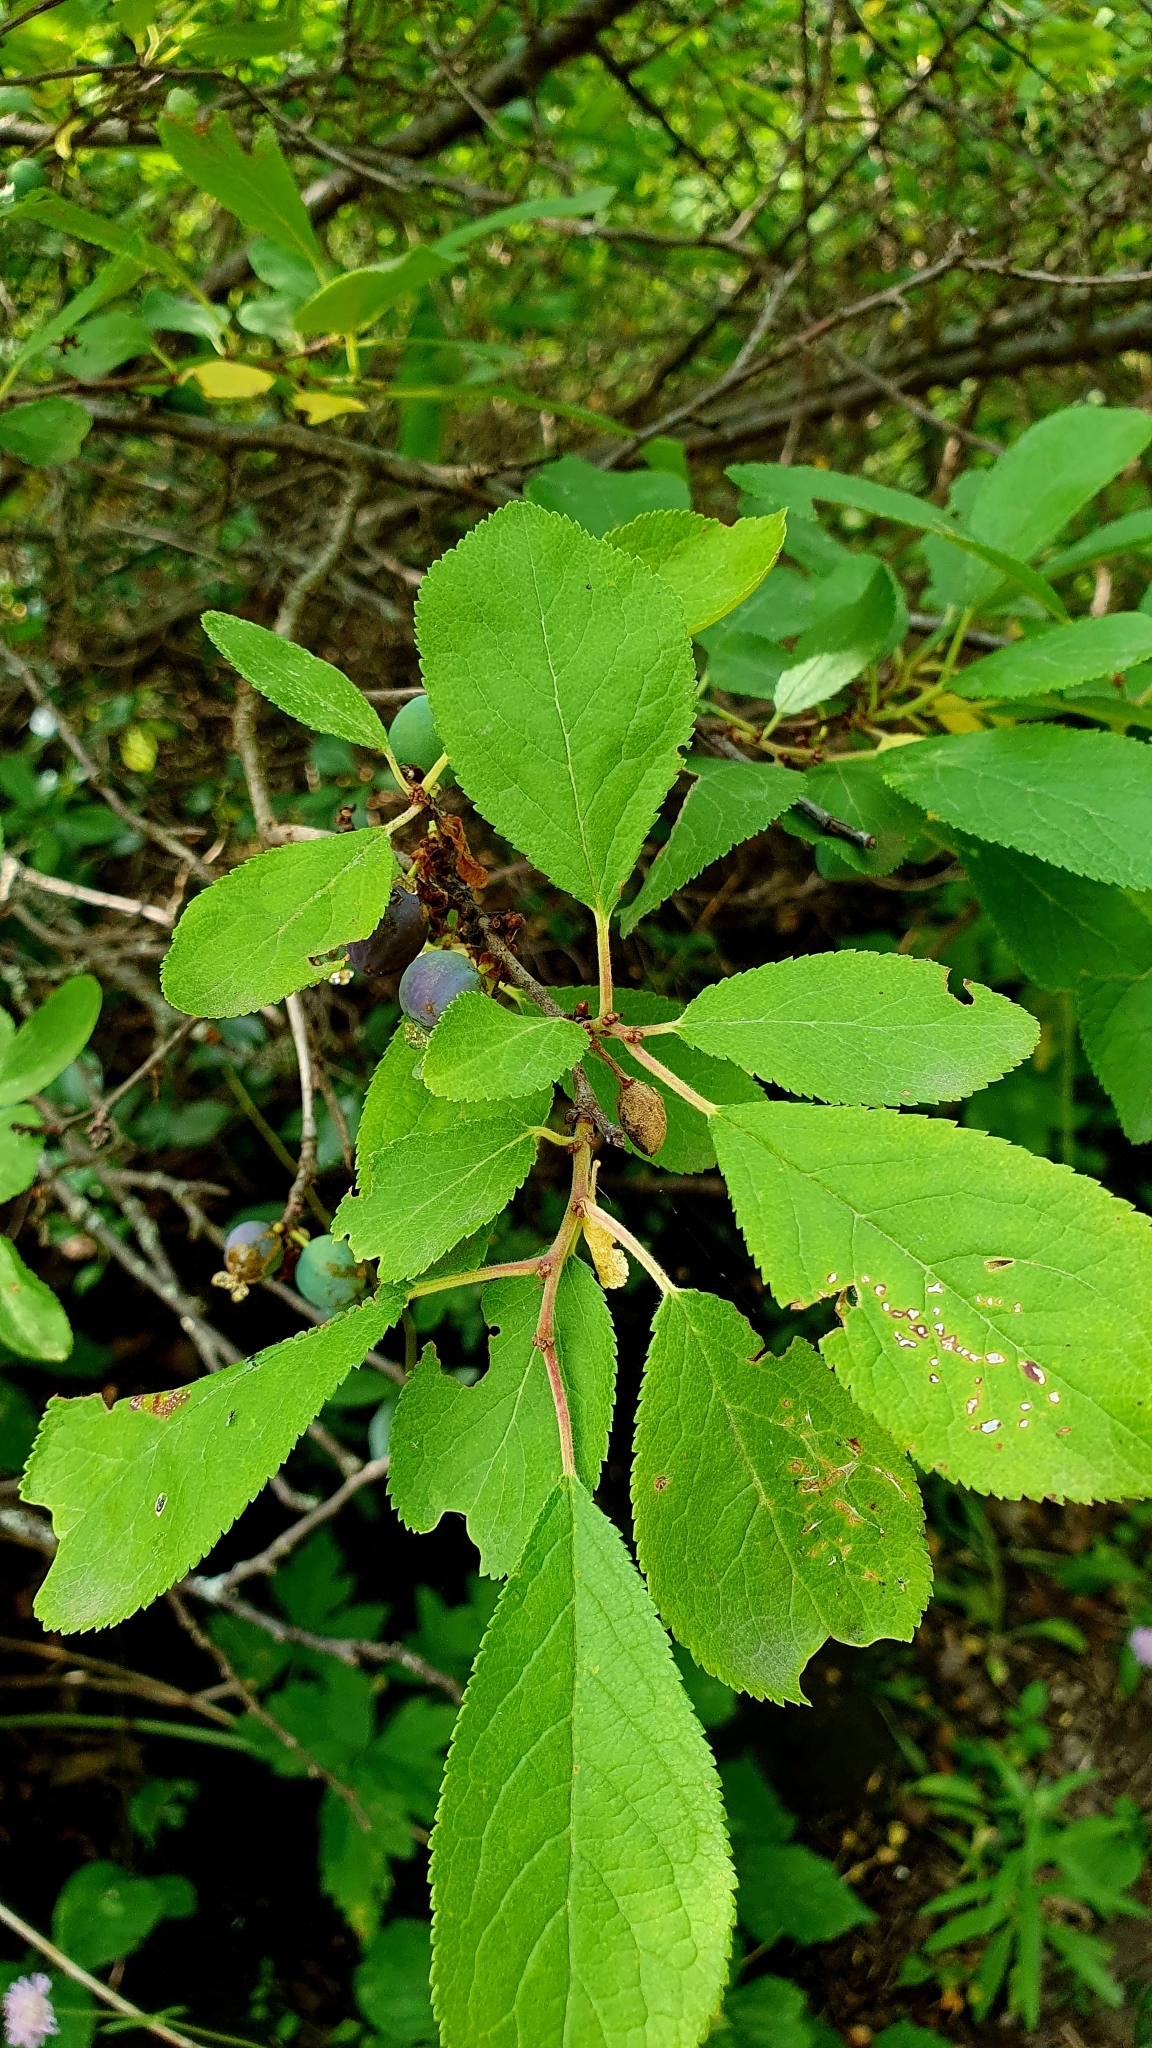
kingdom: Plantae
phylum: Tracheophyta
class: Magnoliopsida
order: Rosales
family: Rosaceae
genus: Prunus
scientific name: Prunus spinosa
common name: Blackthorn
